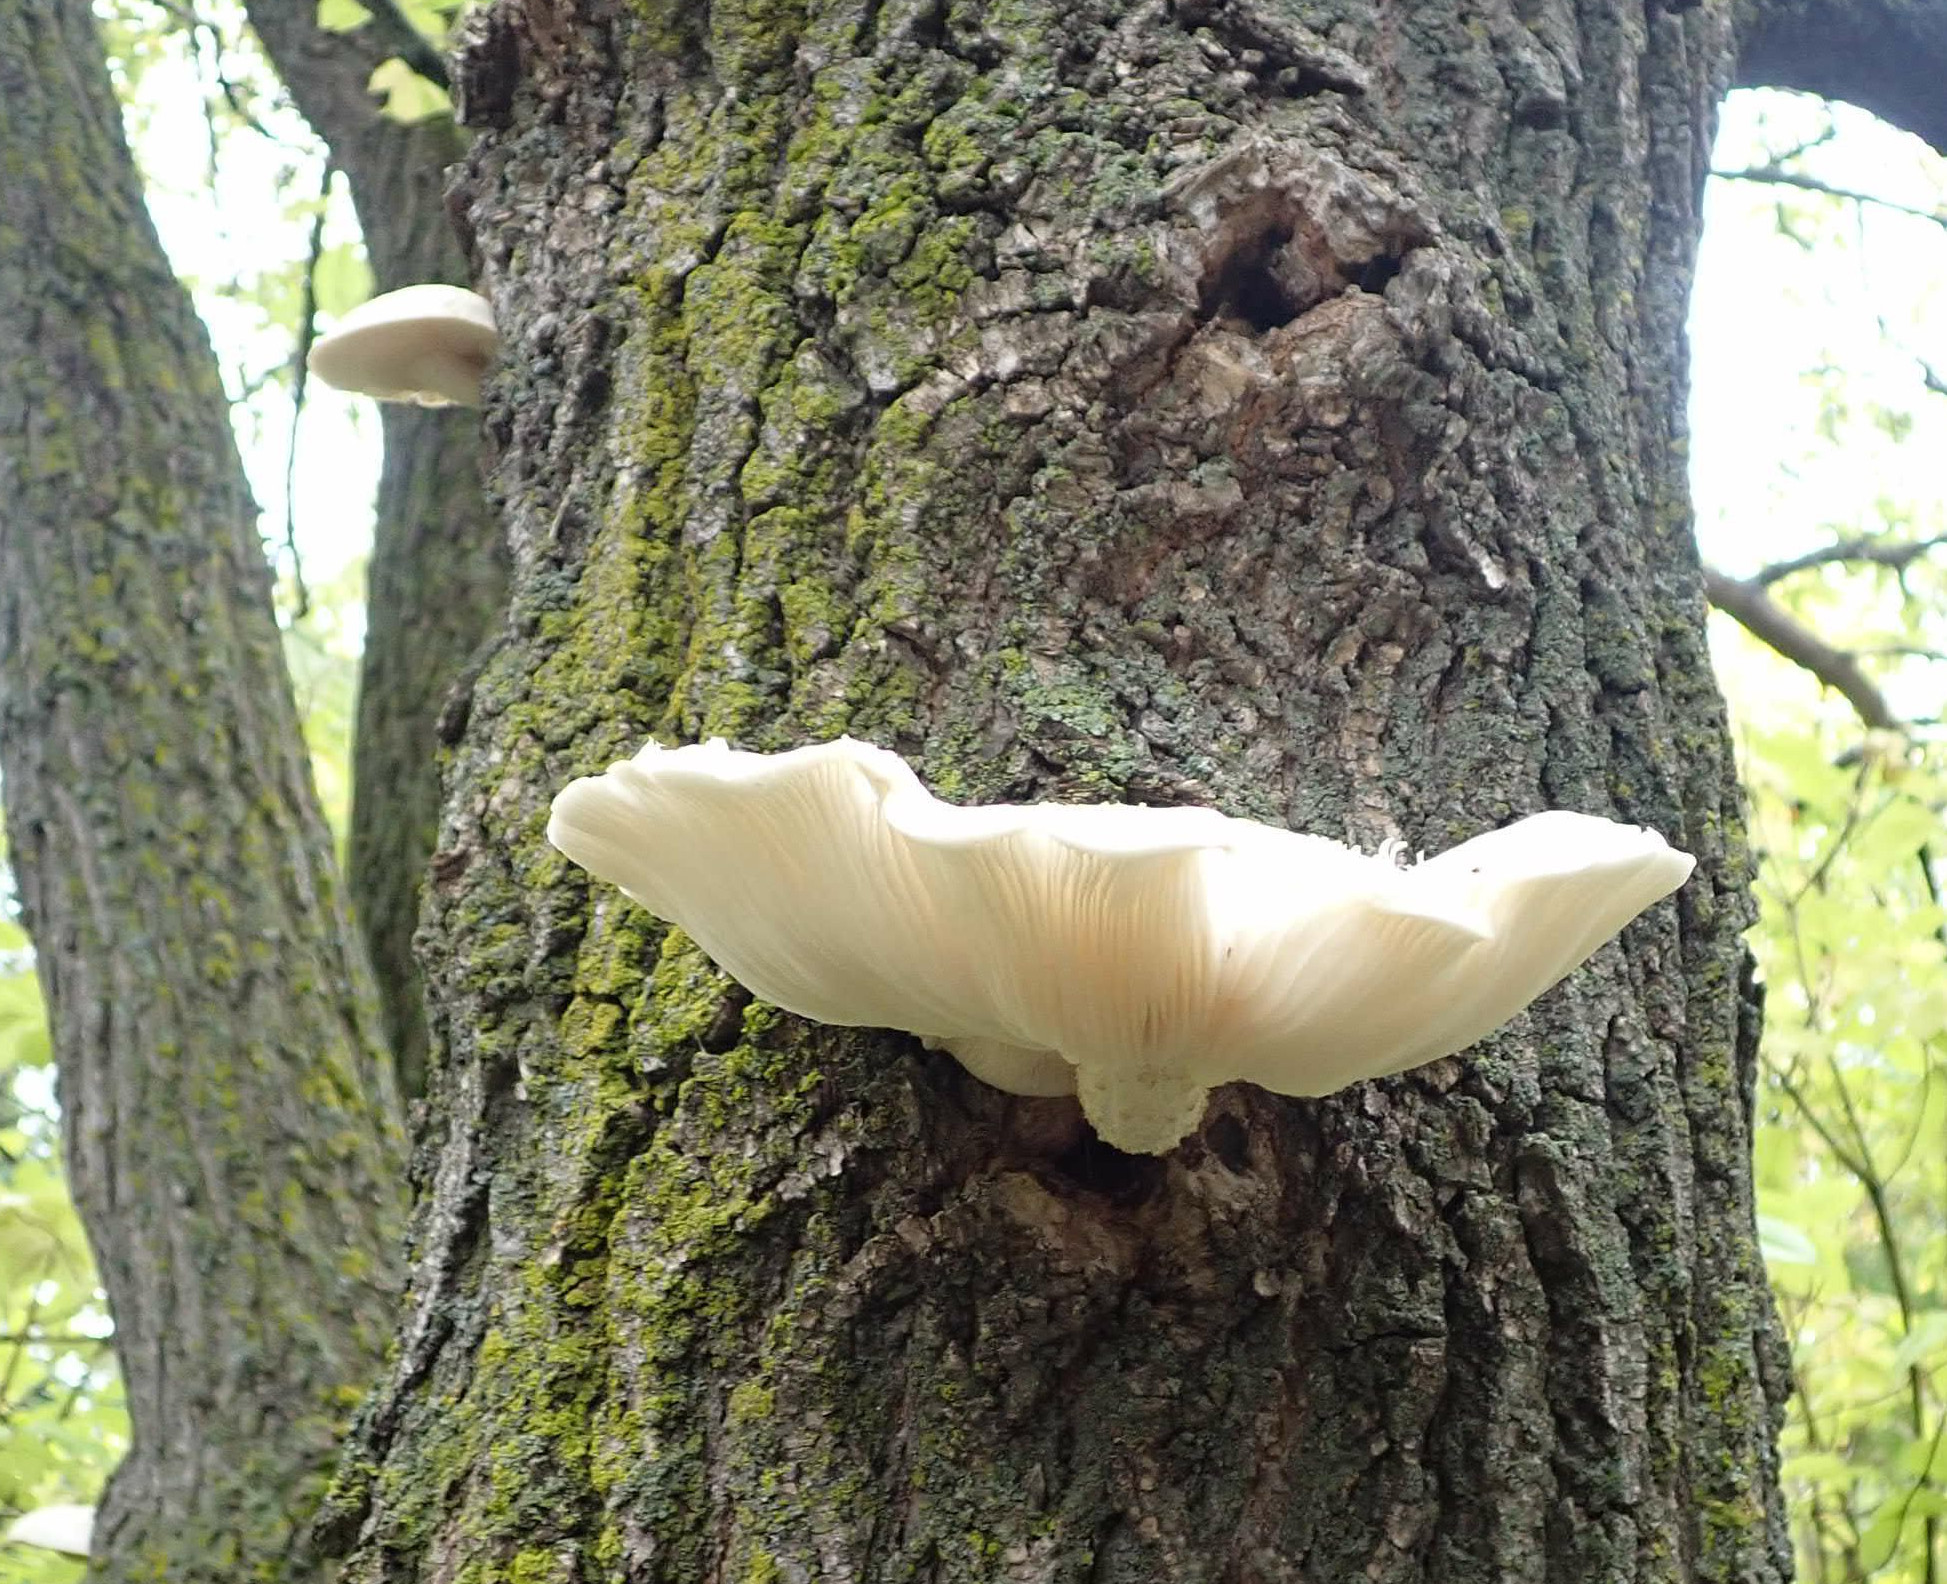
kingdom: Fungi
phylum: Basidiomycota
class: Agaricomycetes
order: Agaricales
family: Lyophyllaceae
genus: Hypsizygus
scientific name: Hypsizygus ulmarius
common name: Elm leech
